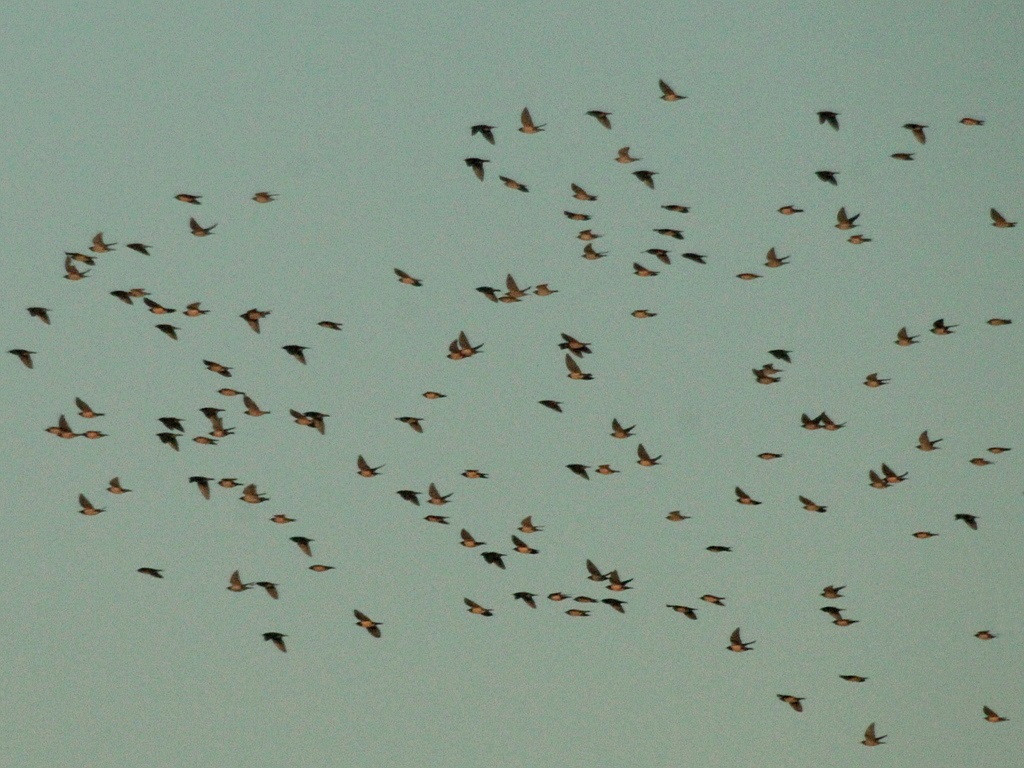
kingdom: Animalia
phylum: Chordata
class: Aves
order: Passeriformes
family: Sturnidae
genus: Pastor
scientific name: Pastor roseus
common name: Rosy starling
